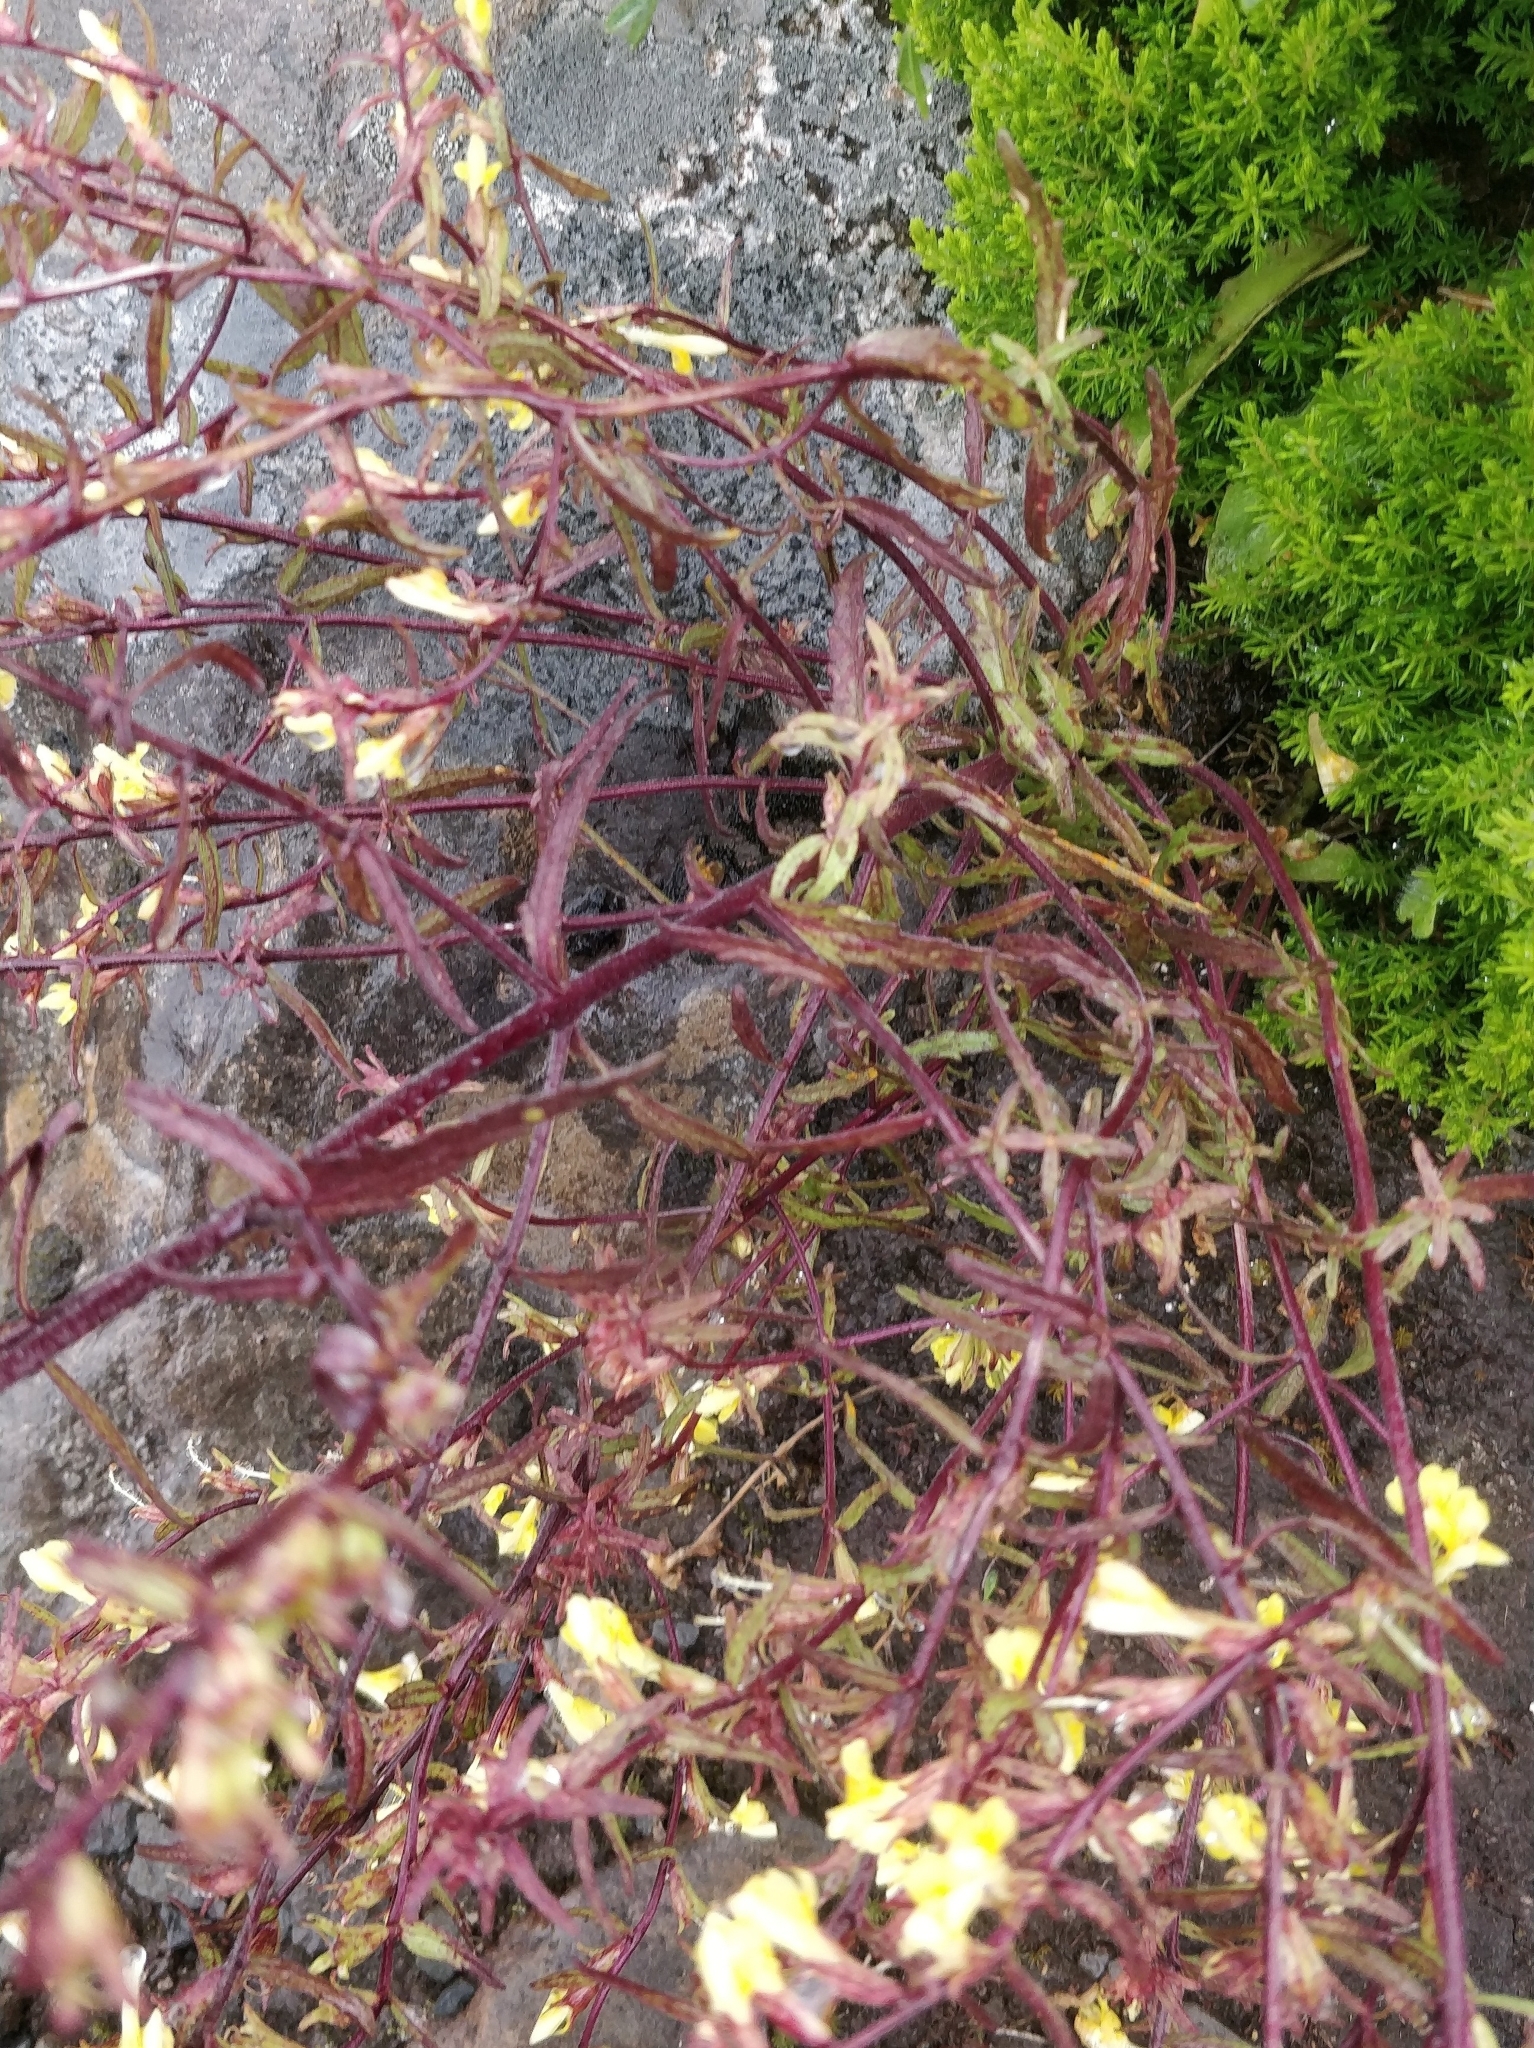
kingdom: Plantae
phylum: Tracheophyta
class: Magnoliopsida
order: Lamiales
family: Orobanchaceae
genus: Odontites
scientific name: Odontites hollianus
